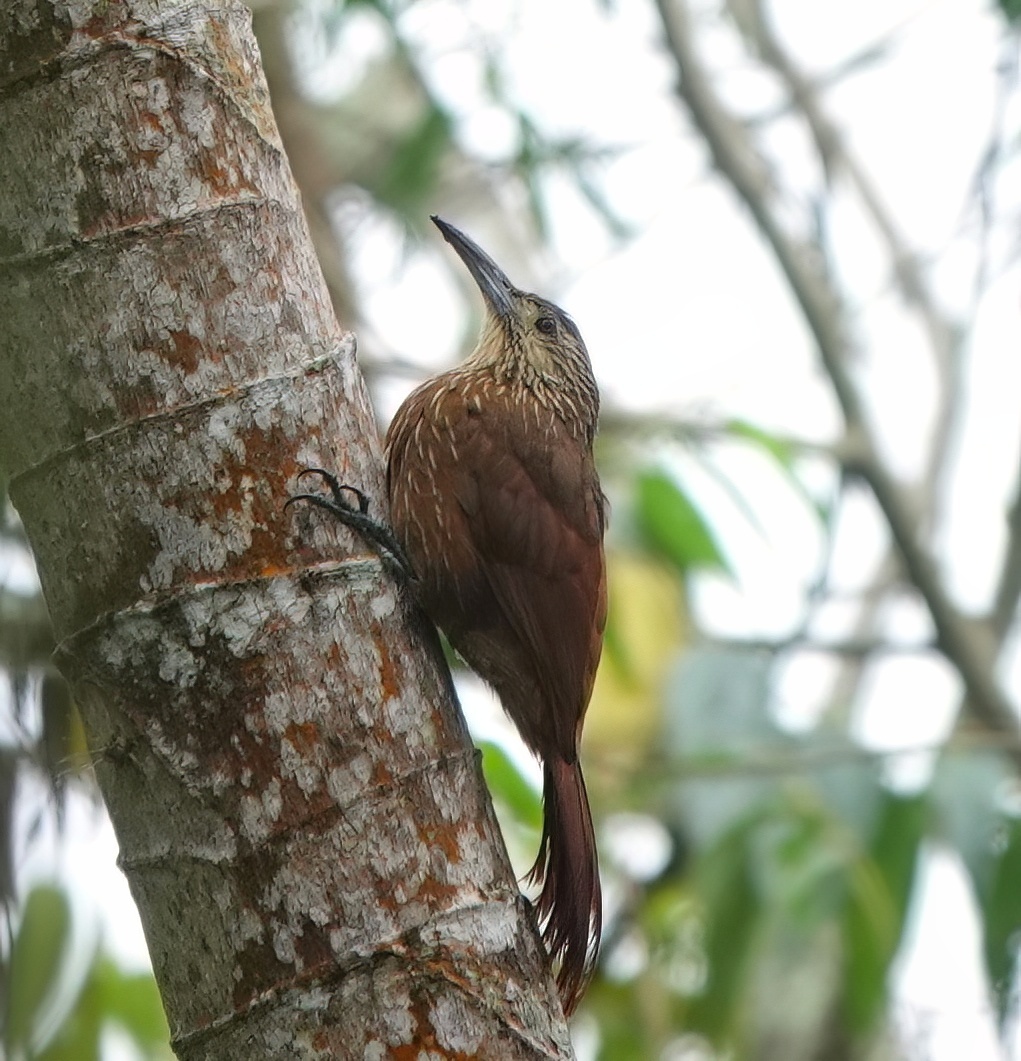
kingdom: Animalia
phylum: Chordata
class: Aves
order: Passeriformes
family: Furnariidae
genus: Xiphocolaptes
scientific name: Xiphocolaptes promeropirhynchus
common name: Strong-billed woodcreeper
